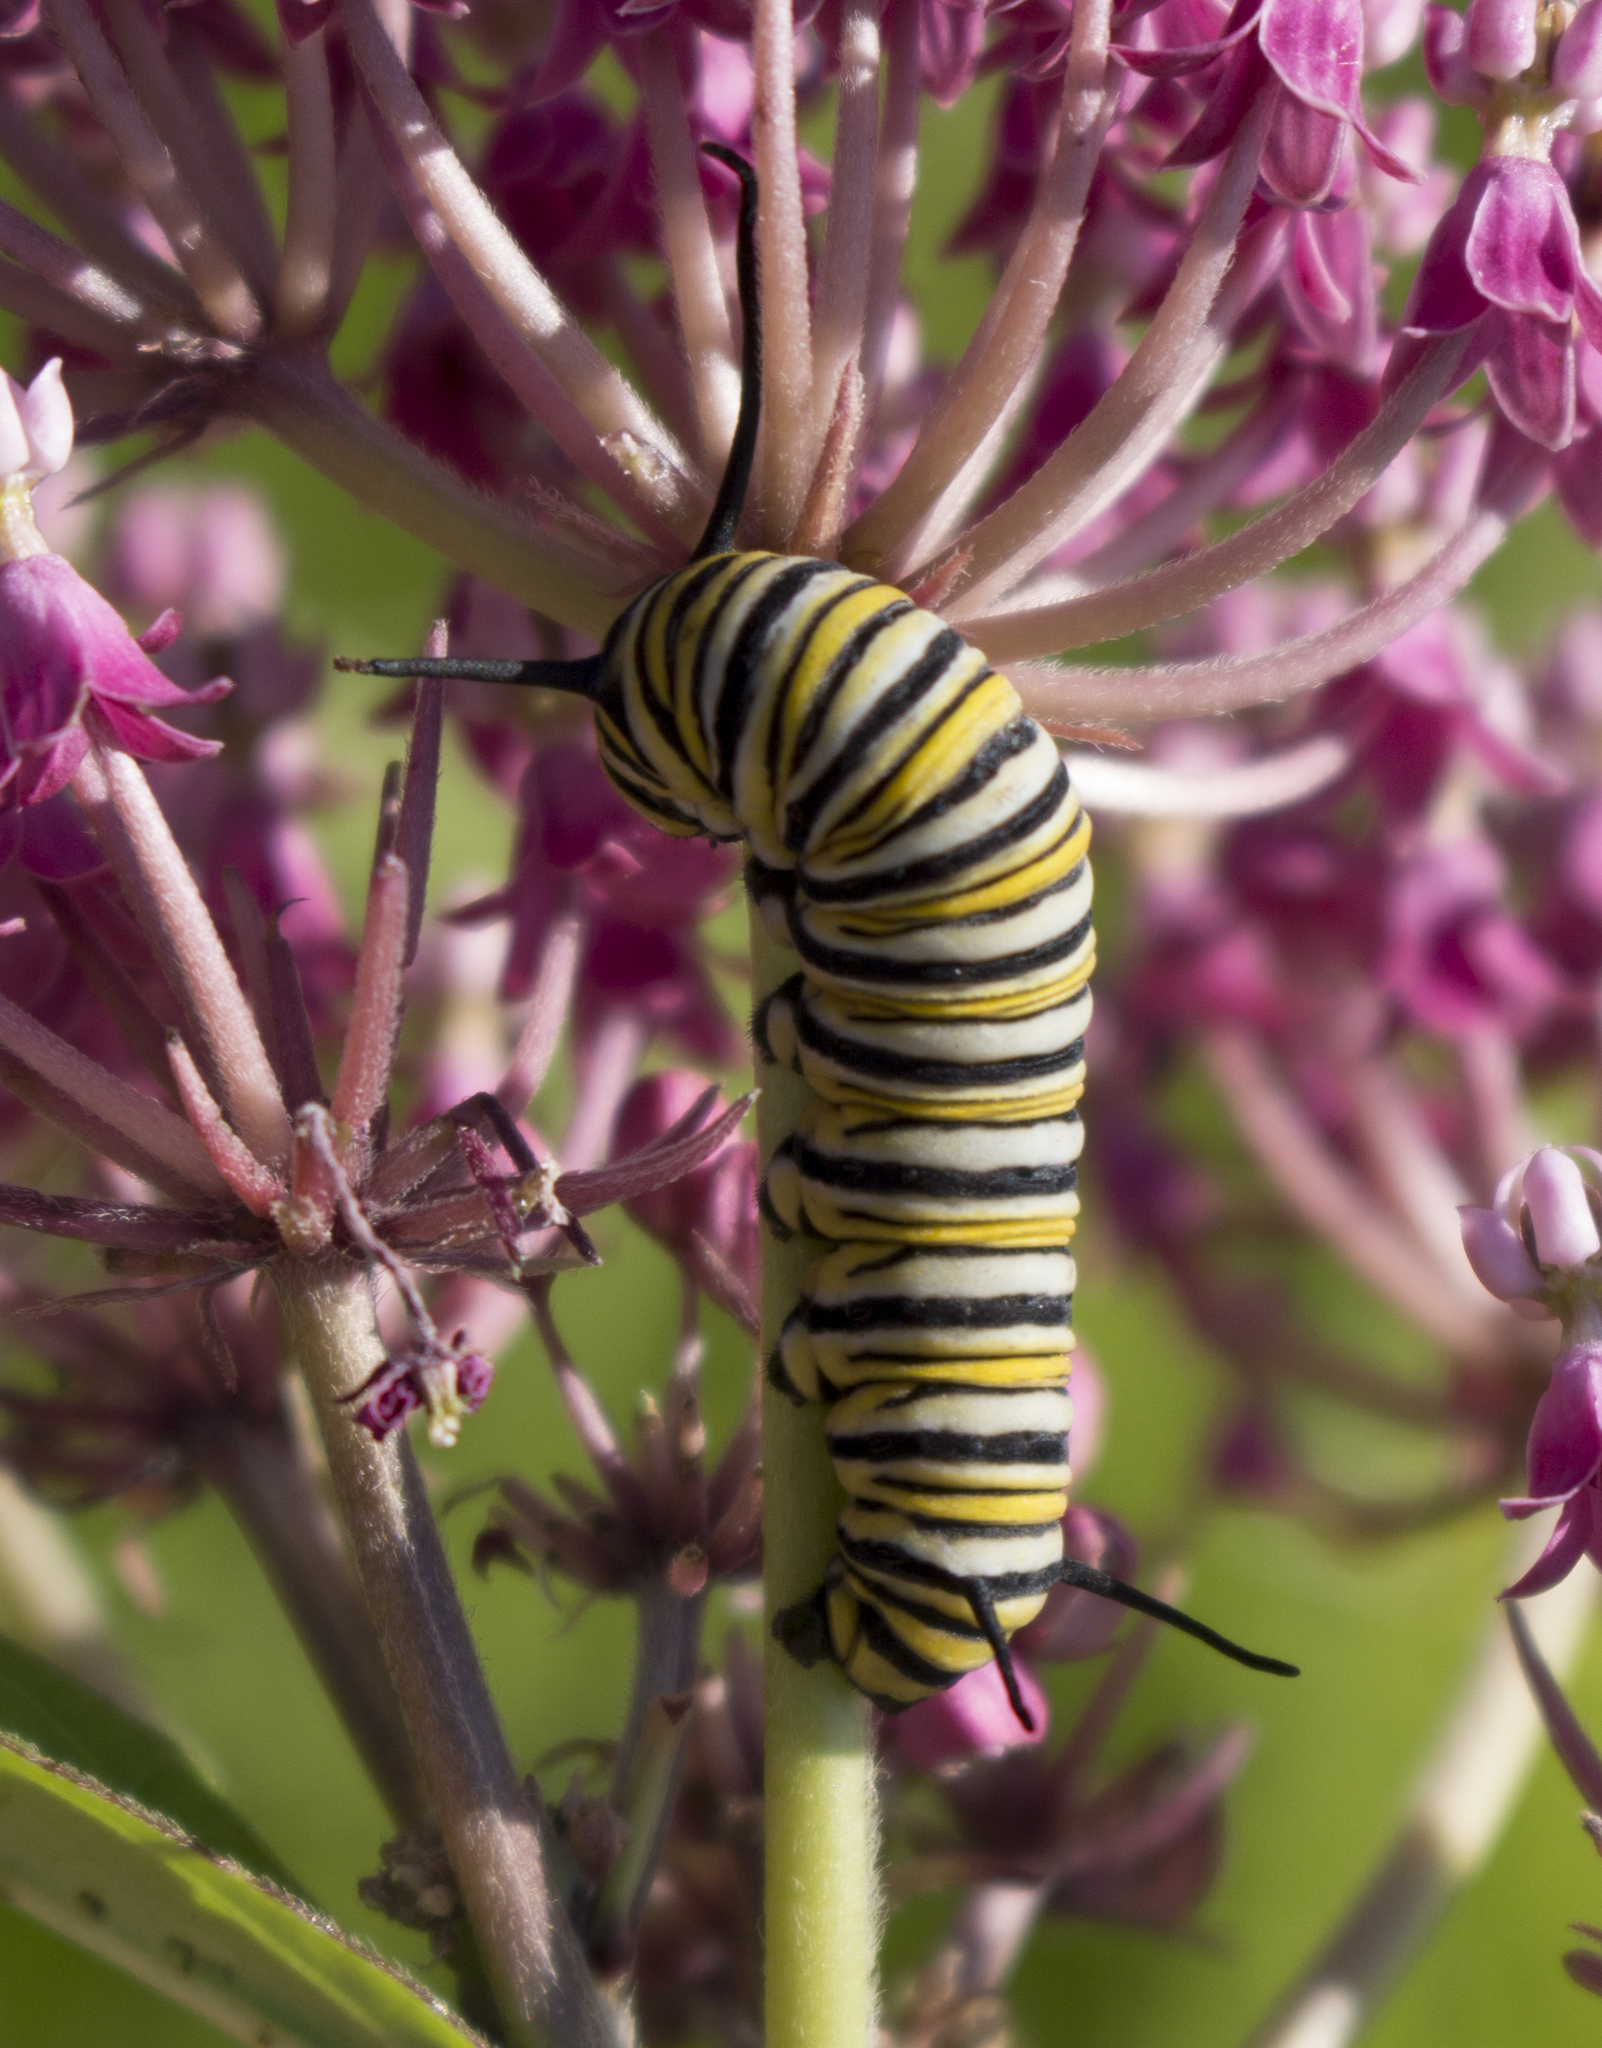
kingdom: Animalia
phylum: Arthropoda
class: Insecta
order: Lepidoptera
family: Nymphalidae
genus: Danaus
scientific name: Danaus plexippus
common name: Monarch
